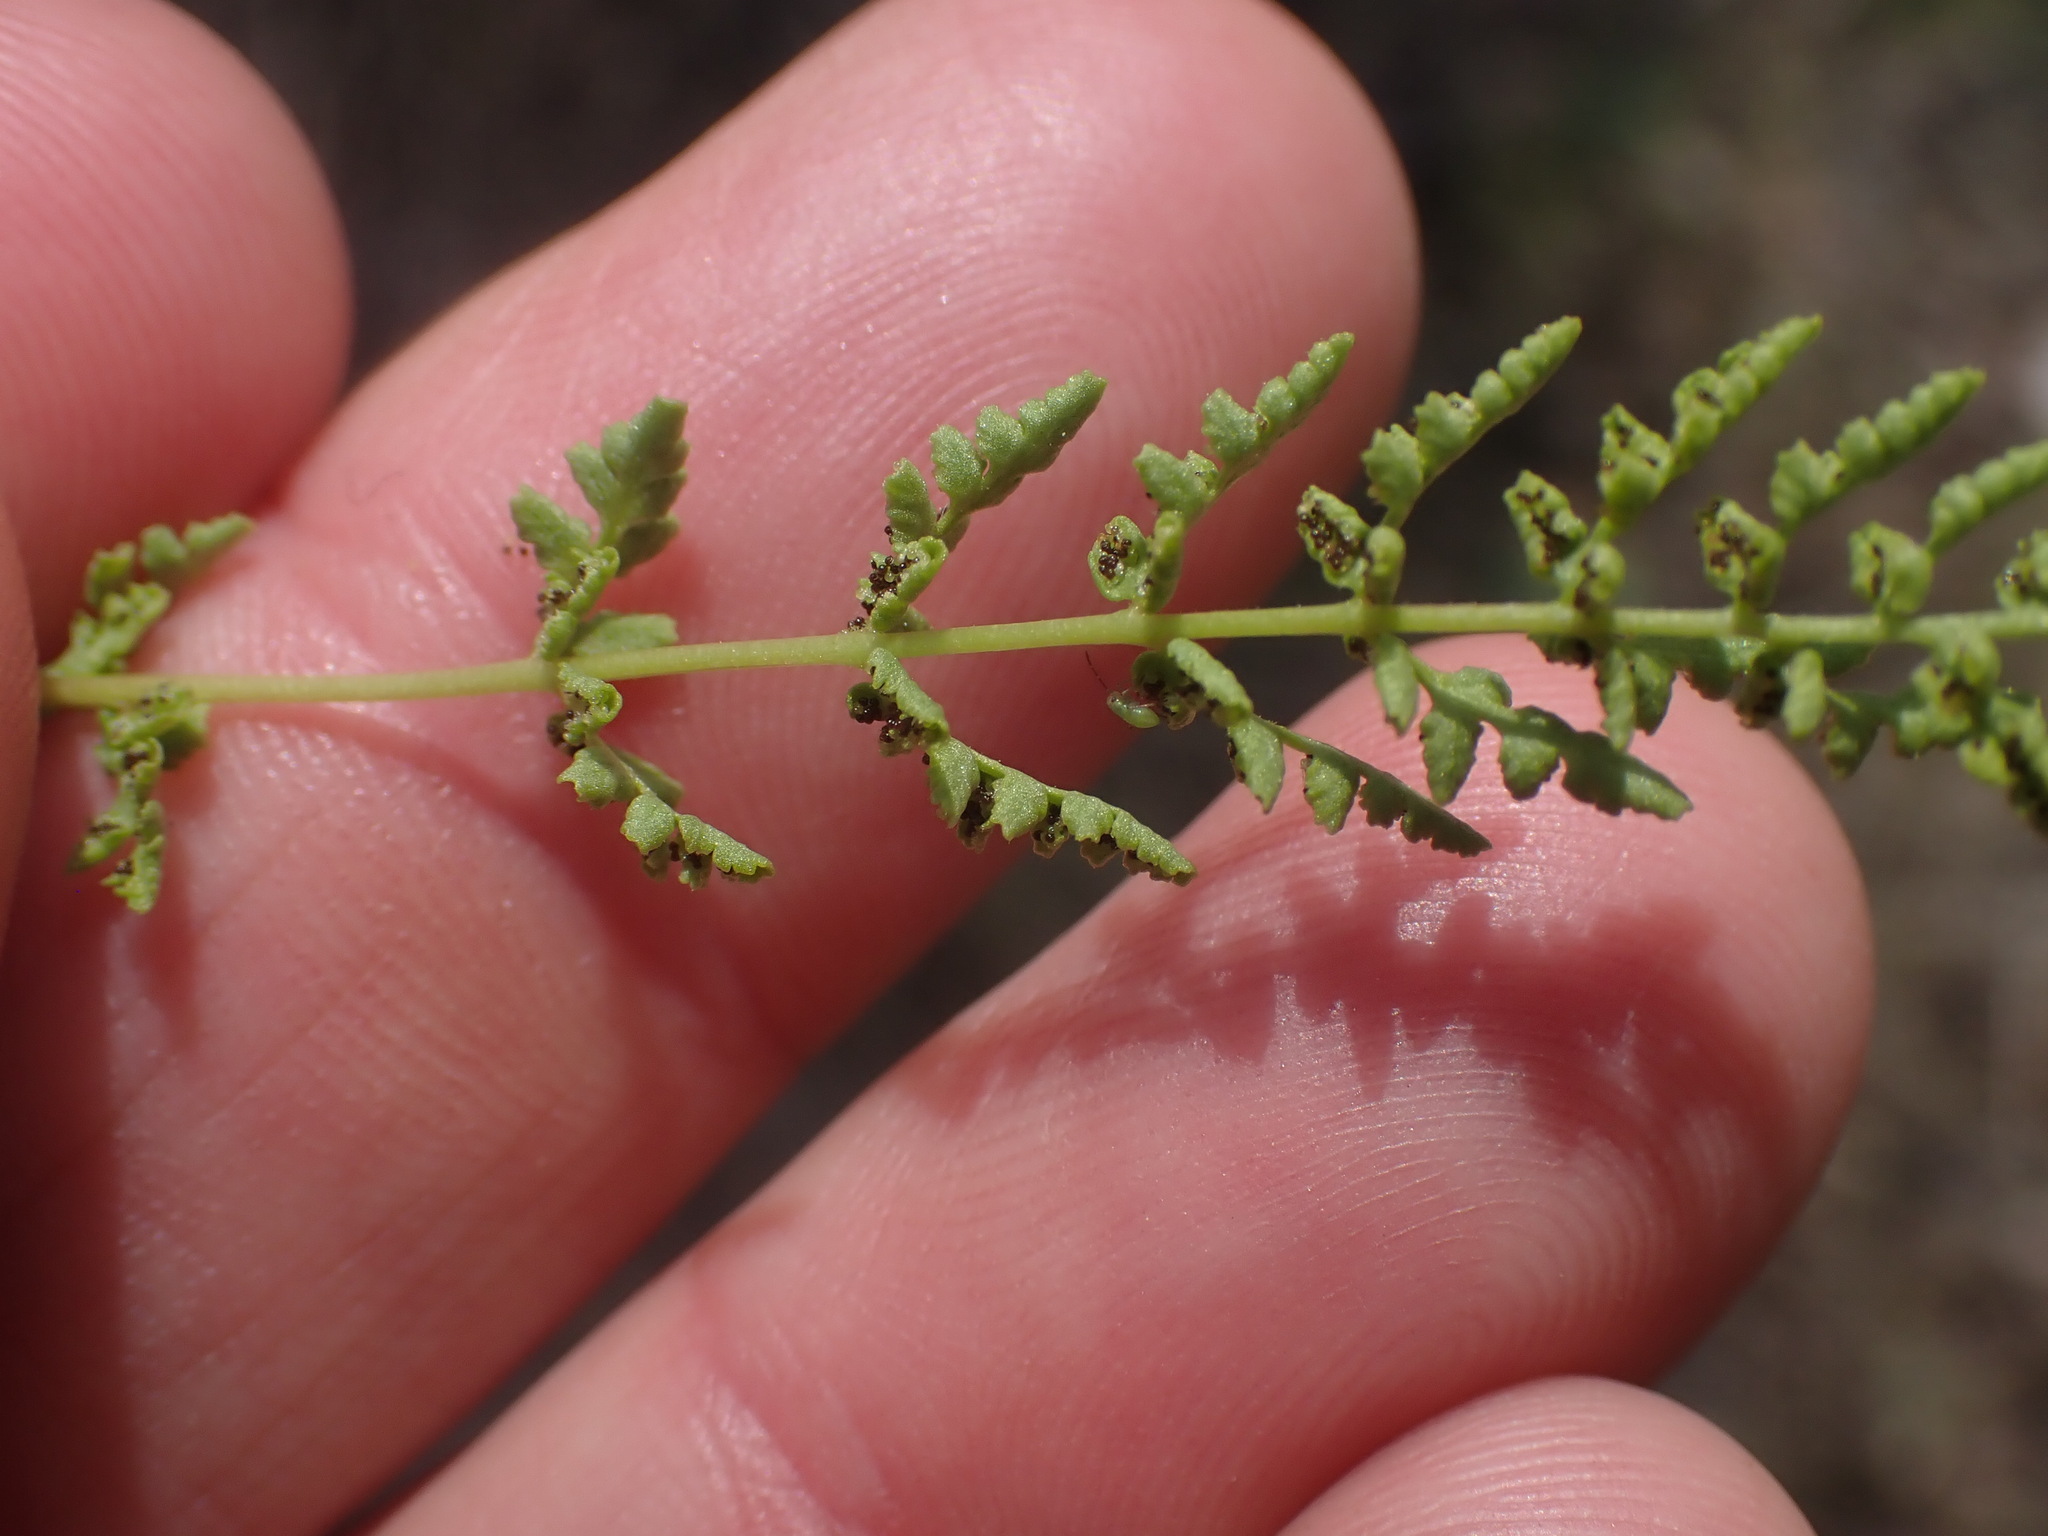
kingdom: Plantae
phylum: Tracheophyta
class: Polypodiopsida
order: Polypodiales
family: Woodsiaceae
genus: Physematium
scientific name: Physematium oreganum
